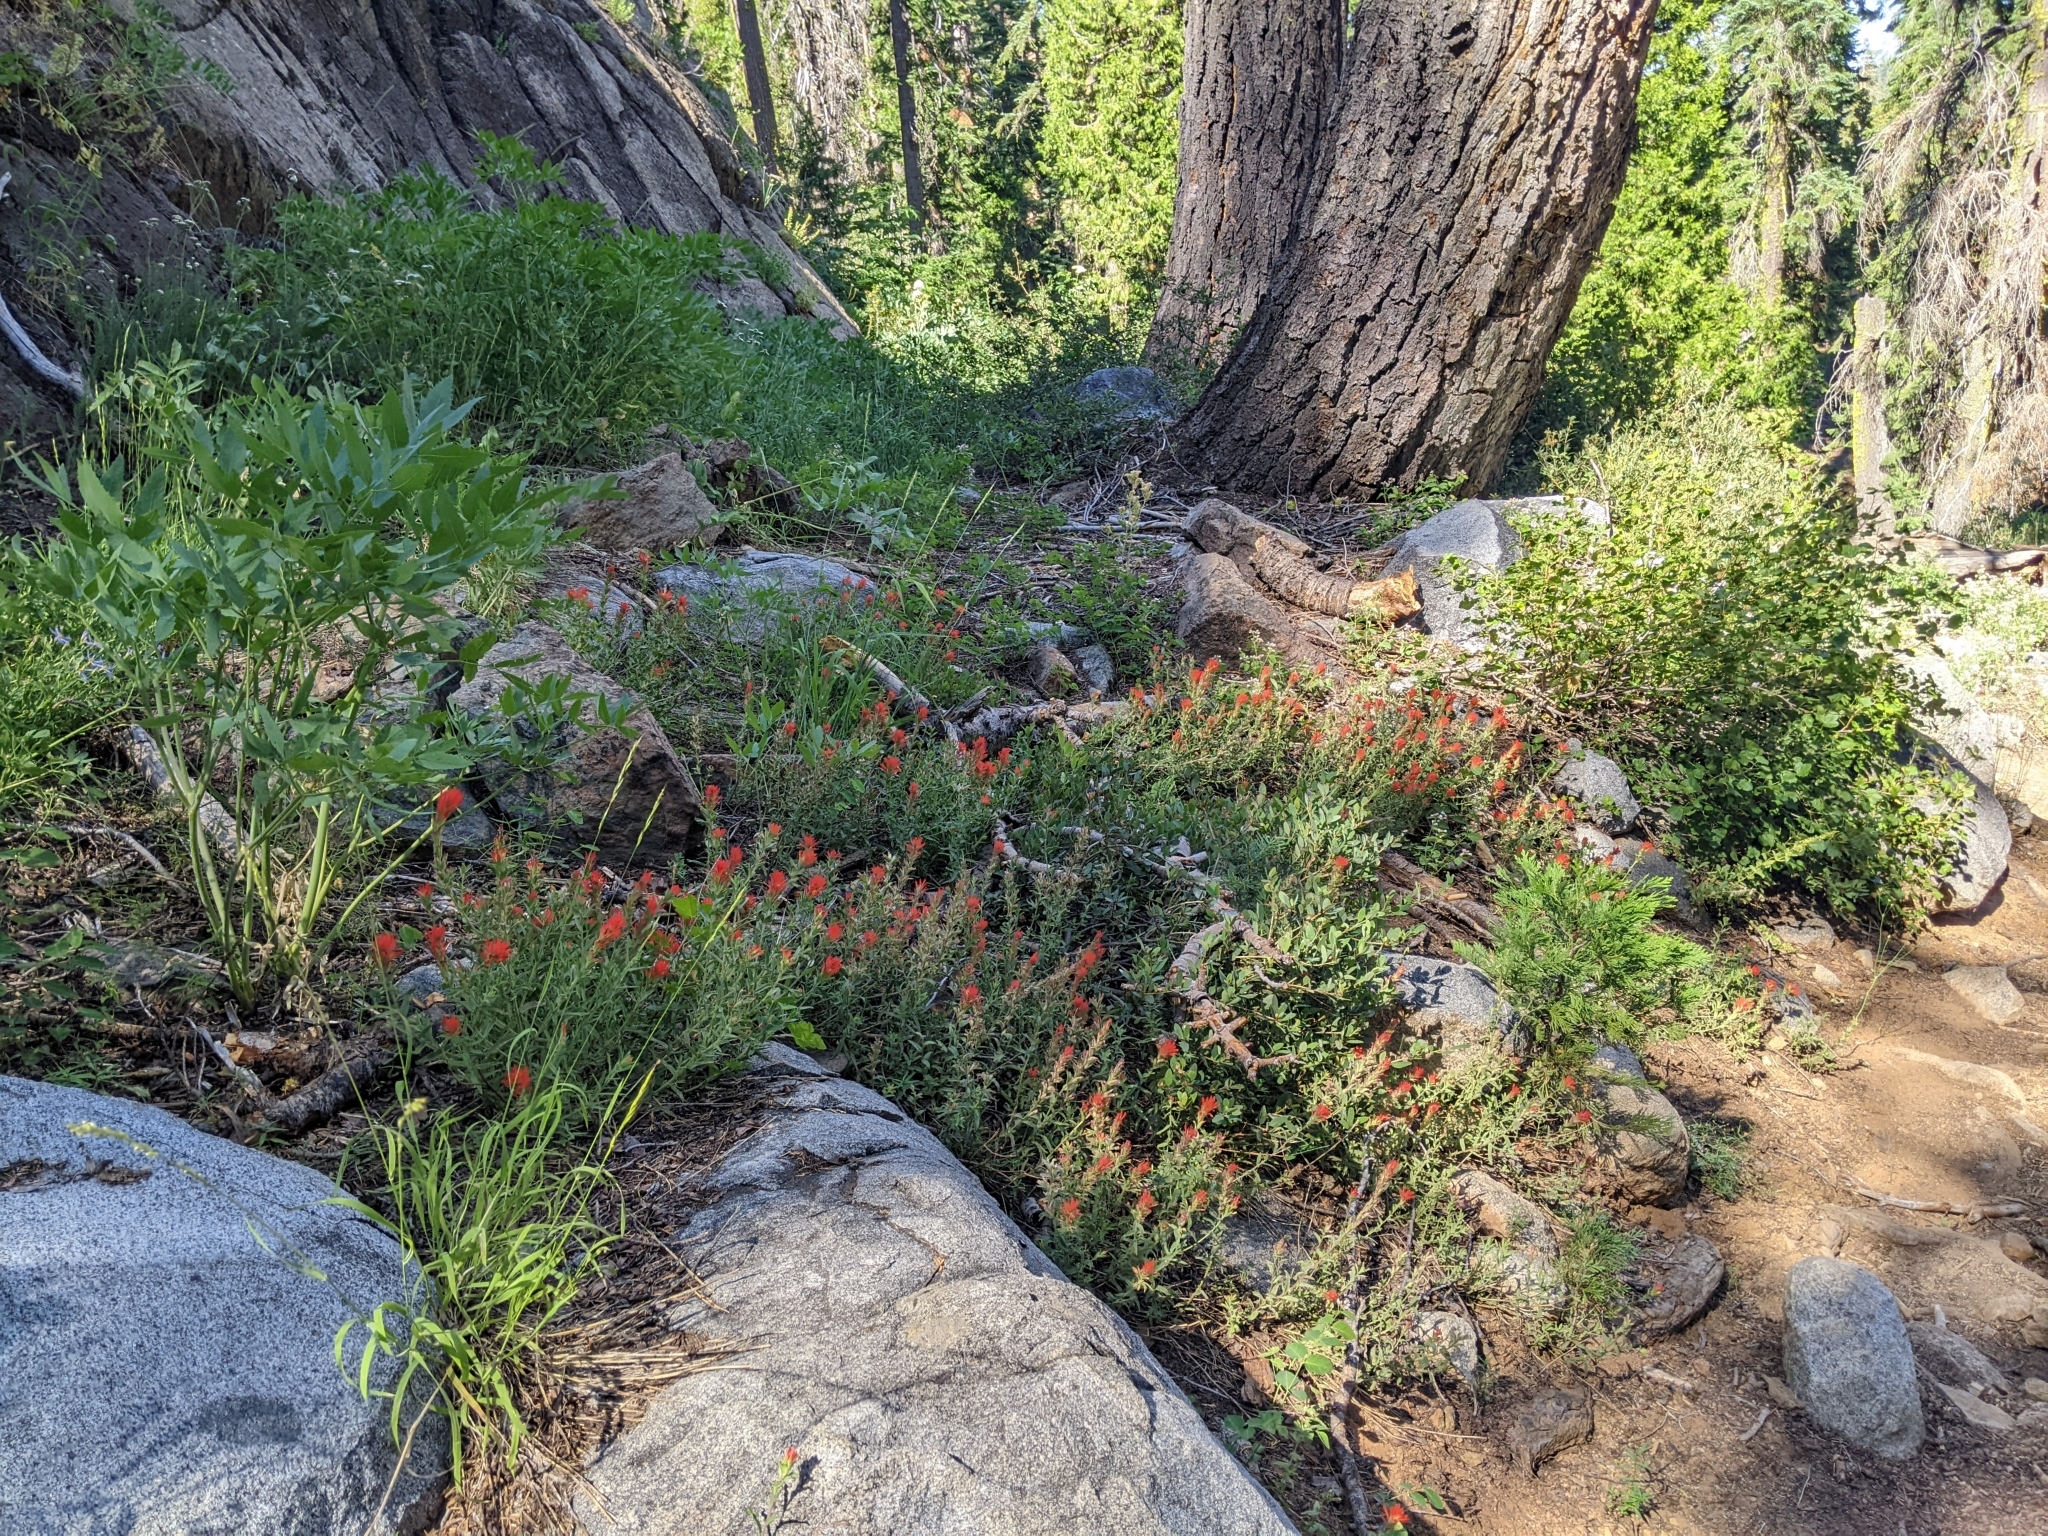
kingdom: Plantae
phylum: Tracheophyta
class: Magnoliopsida
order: Lamiales
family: Orobanchaceae
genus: Castilleja
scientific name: Castilleja applegatei
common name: Wavy-leaf paintbrush
